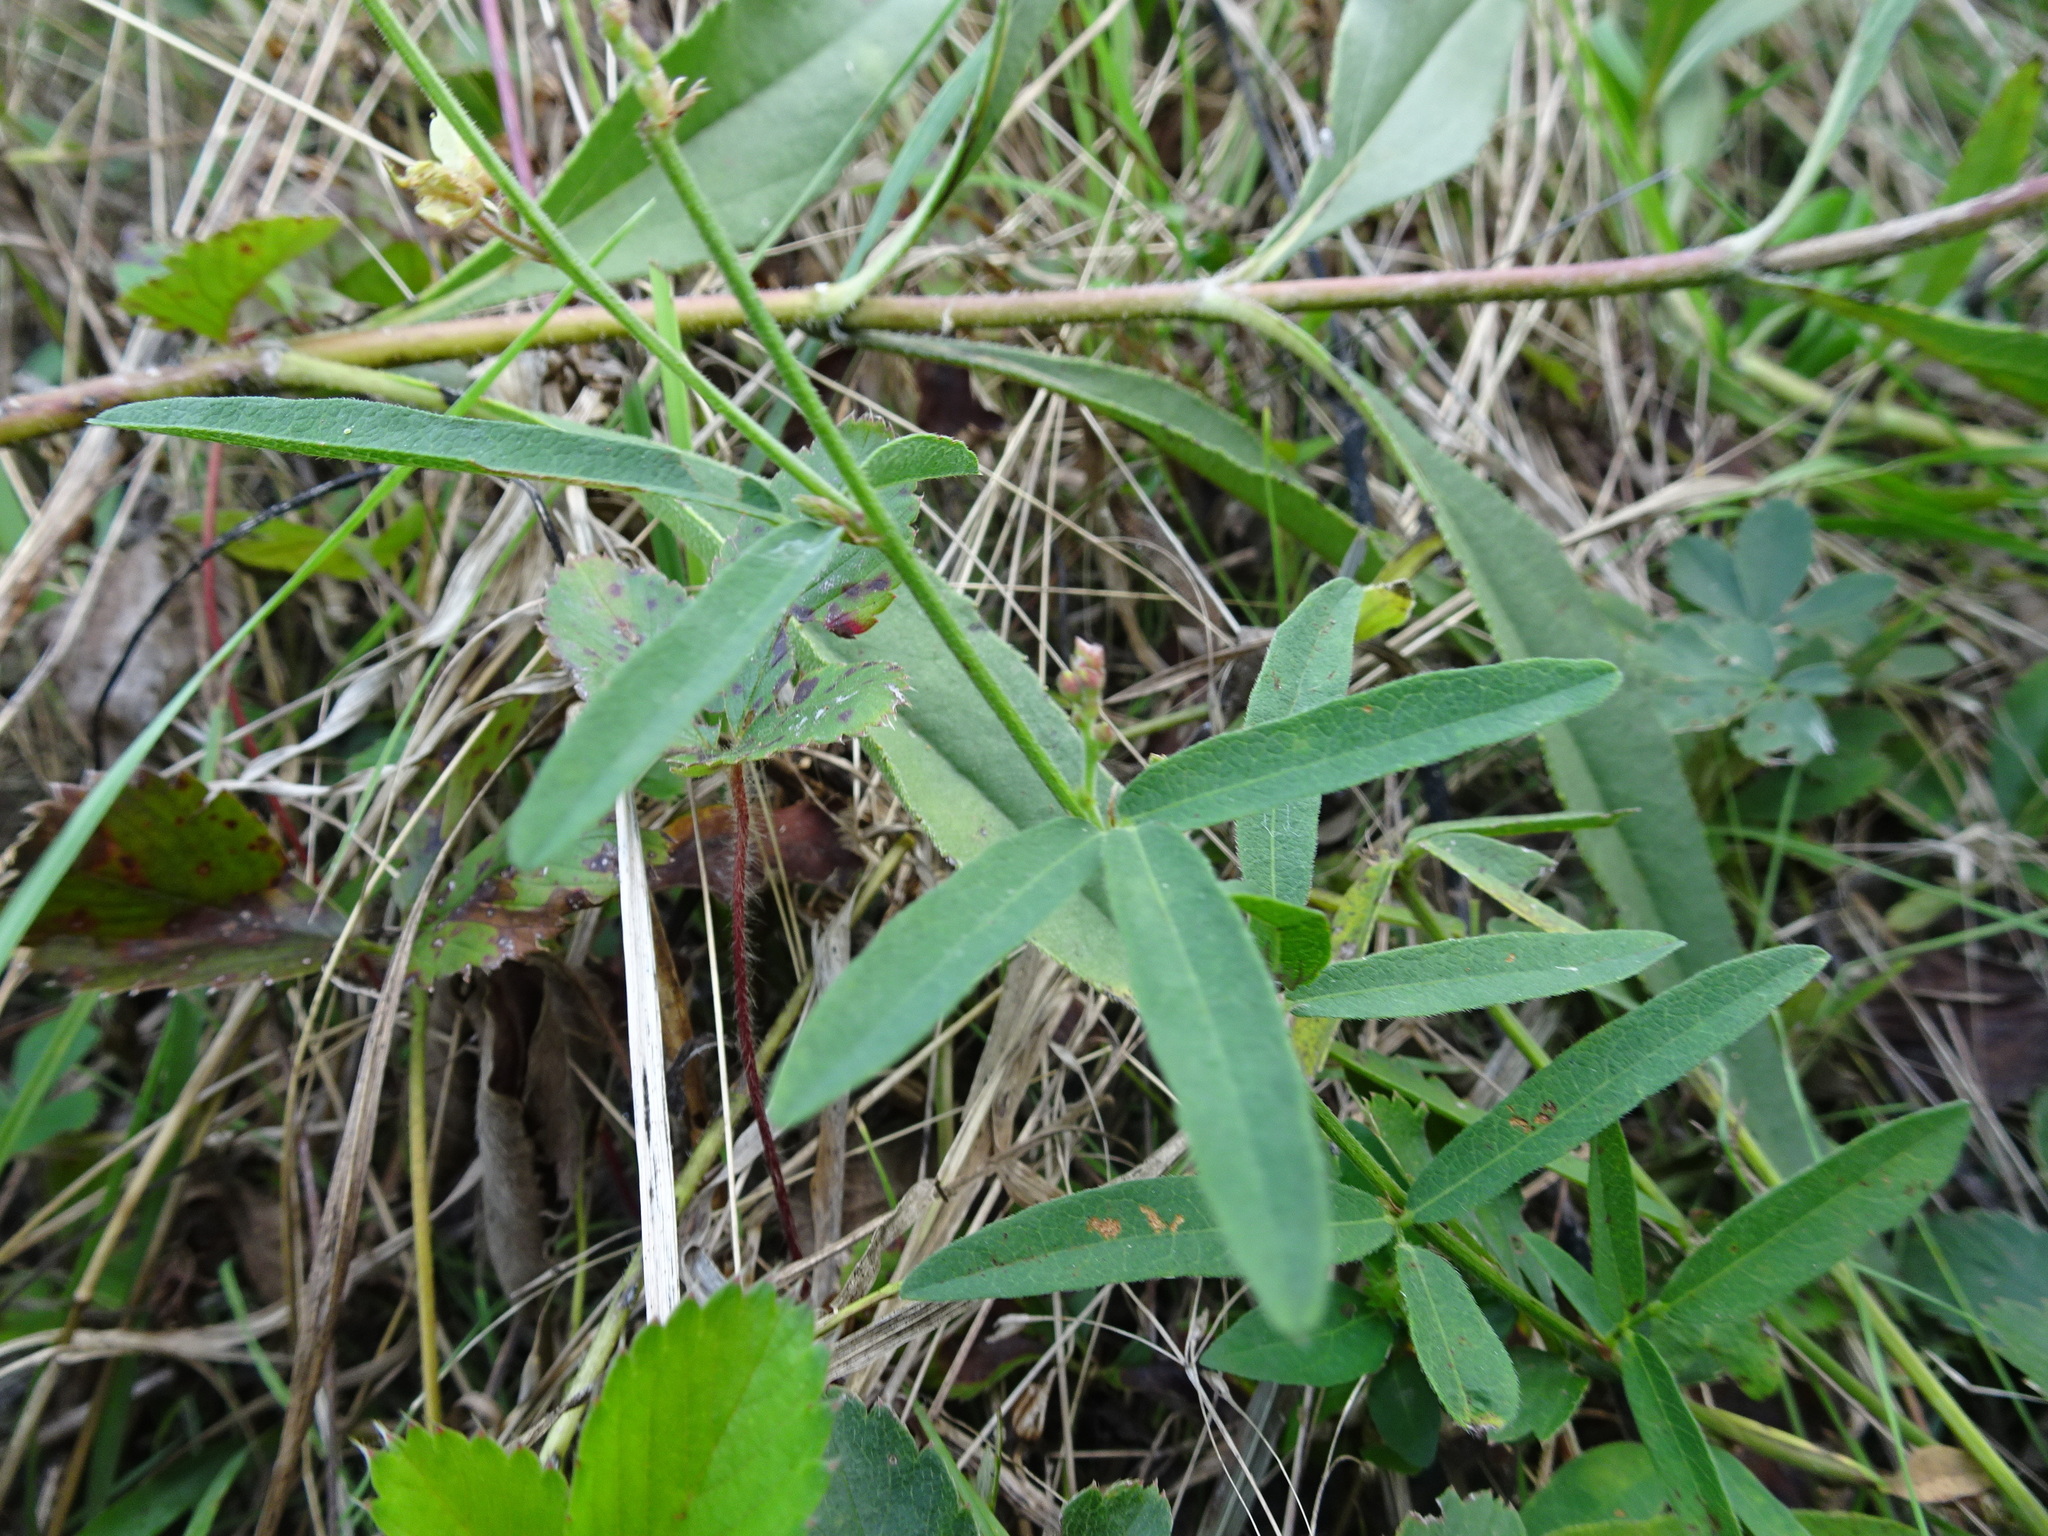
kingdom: Plantae
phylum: Tracheophyta
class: Magnoliopsida
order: Fabales
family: Fabaceae
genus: Desmodium
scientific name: Desmodium sessilifolium
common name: Sessile tick-clover
